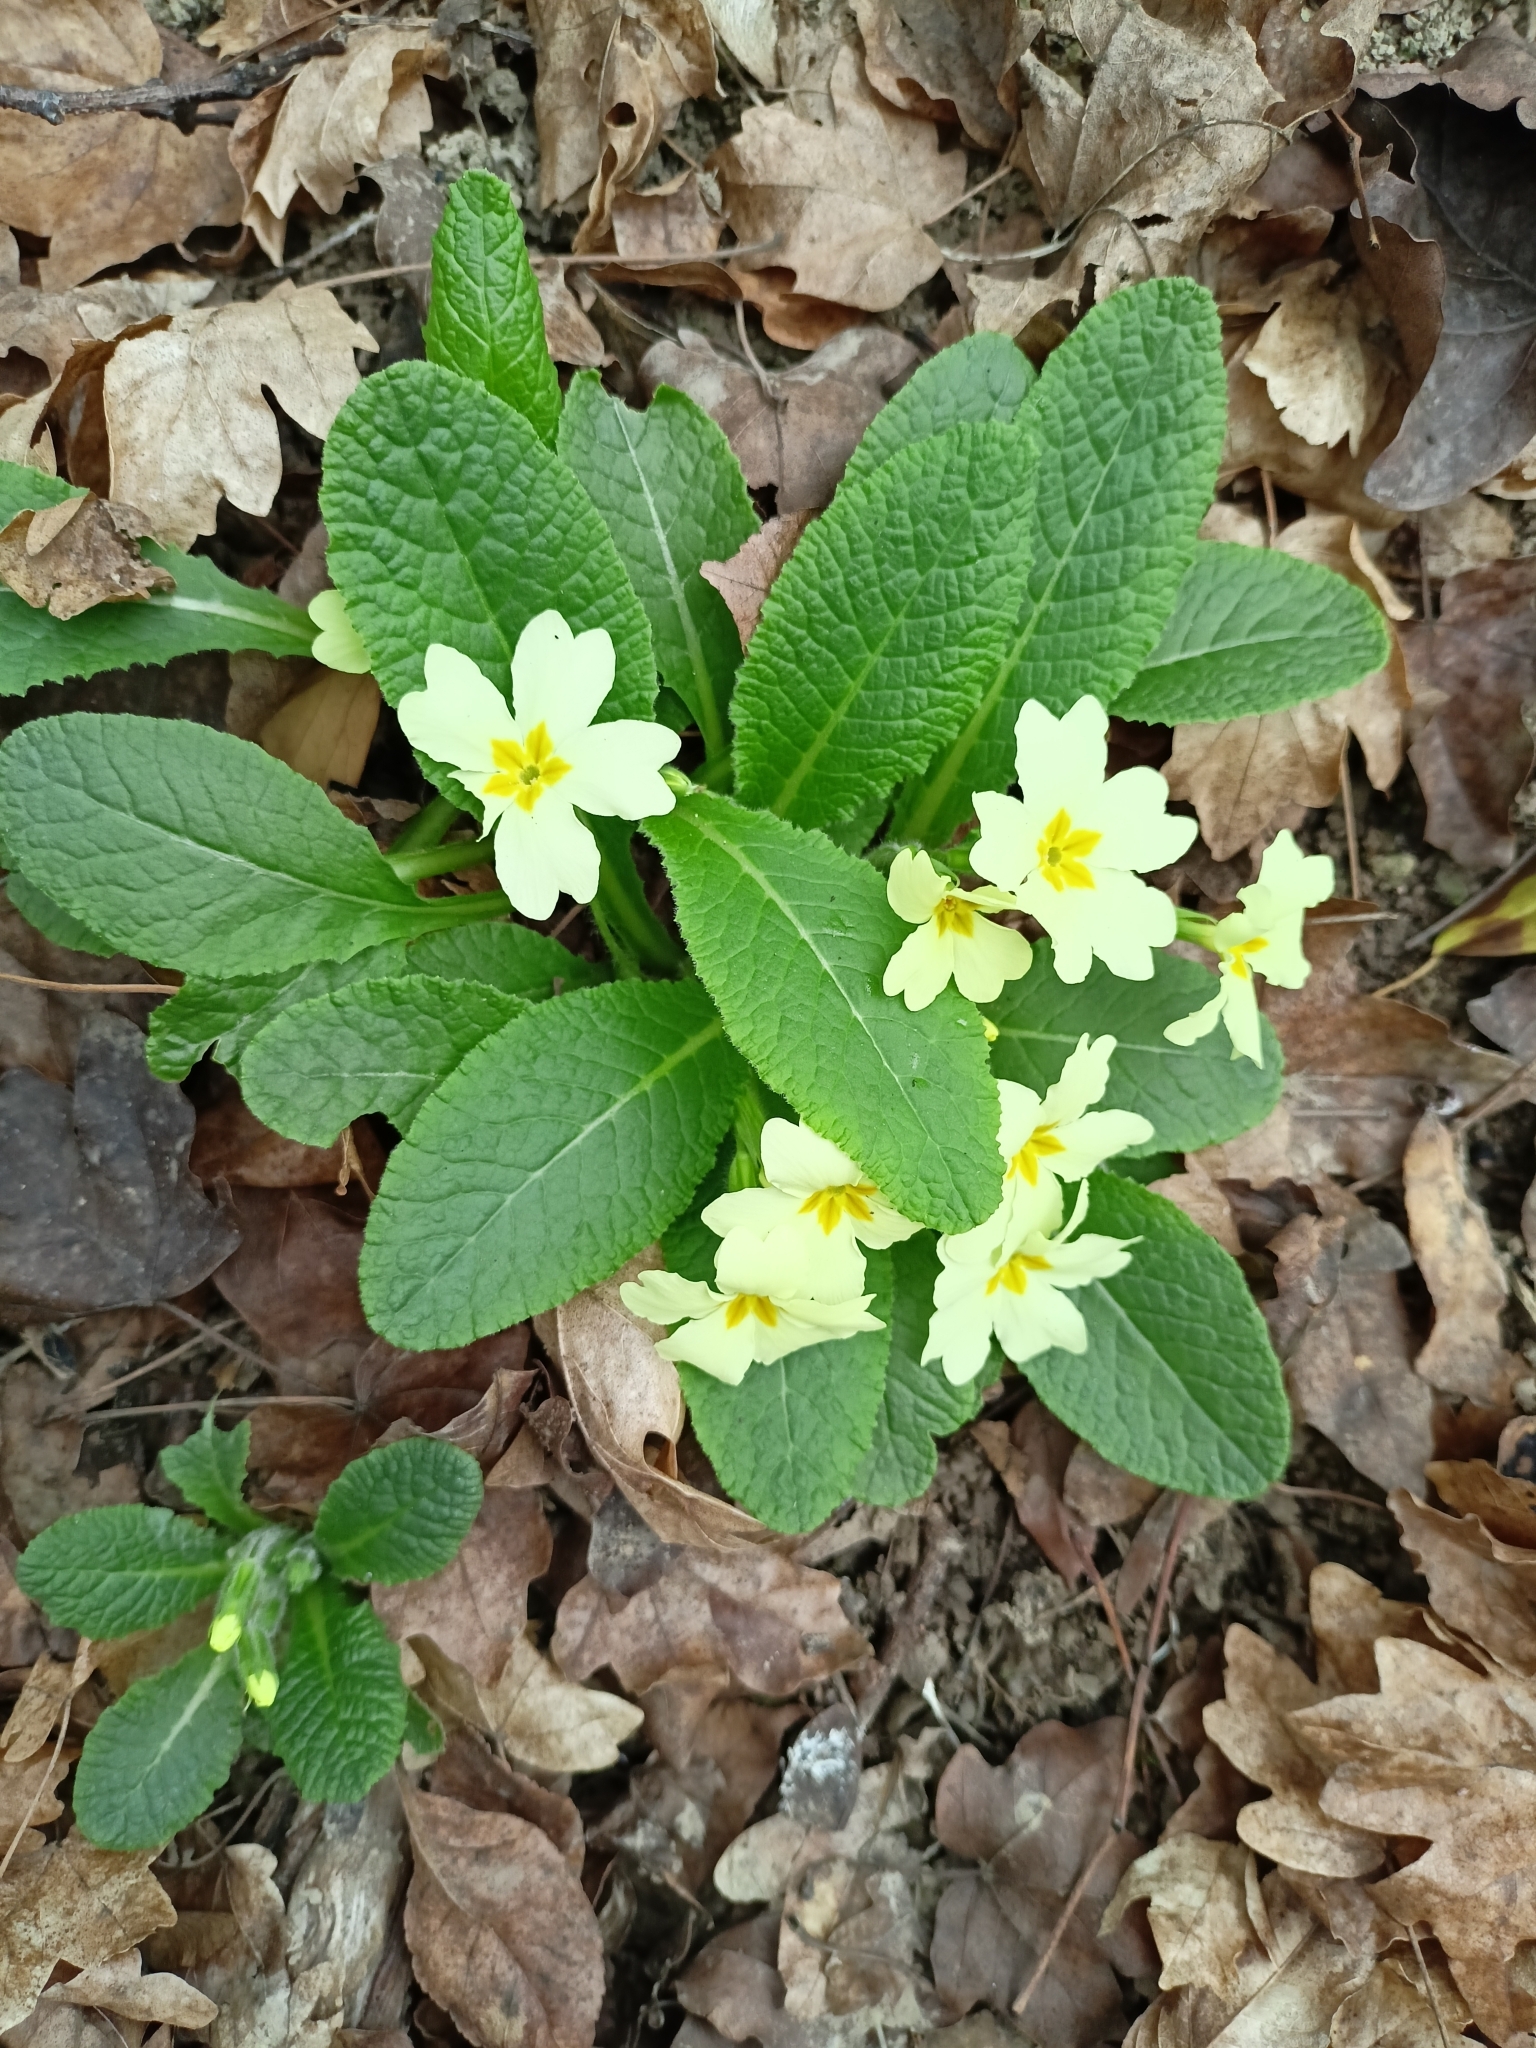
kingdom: Plantae
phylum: Tracheophyta
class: Magnoliopsida
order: Ericales
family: Primulaceae
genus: Primula
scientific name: Primula vulgaris
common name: Primrose
